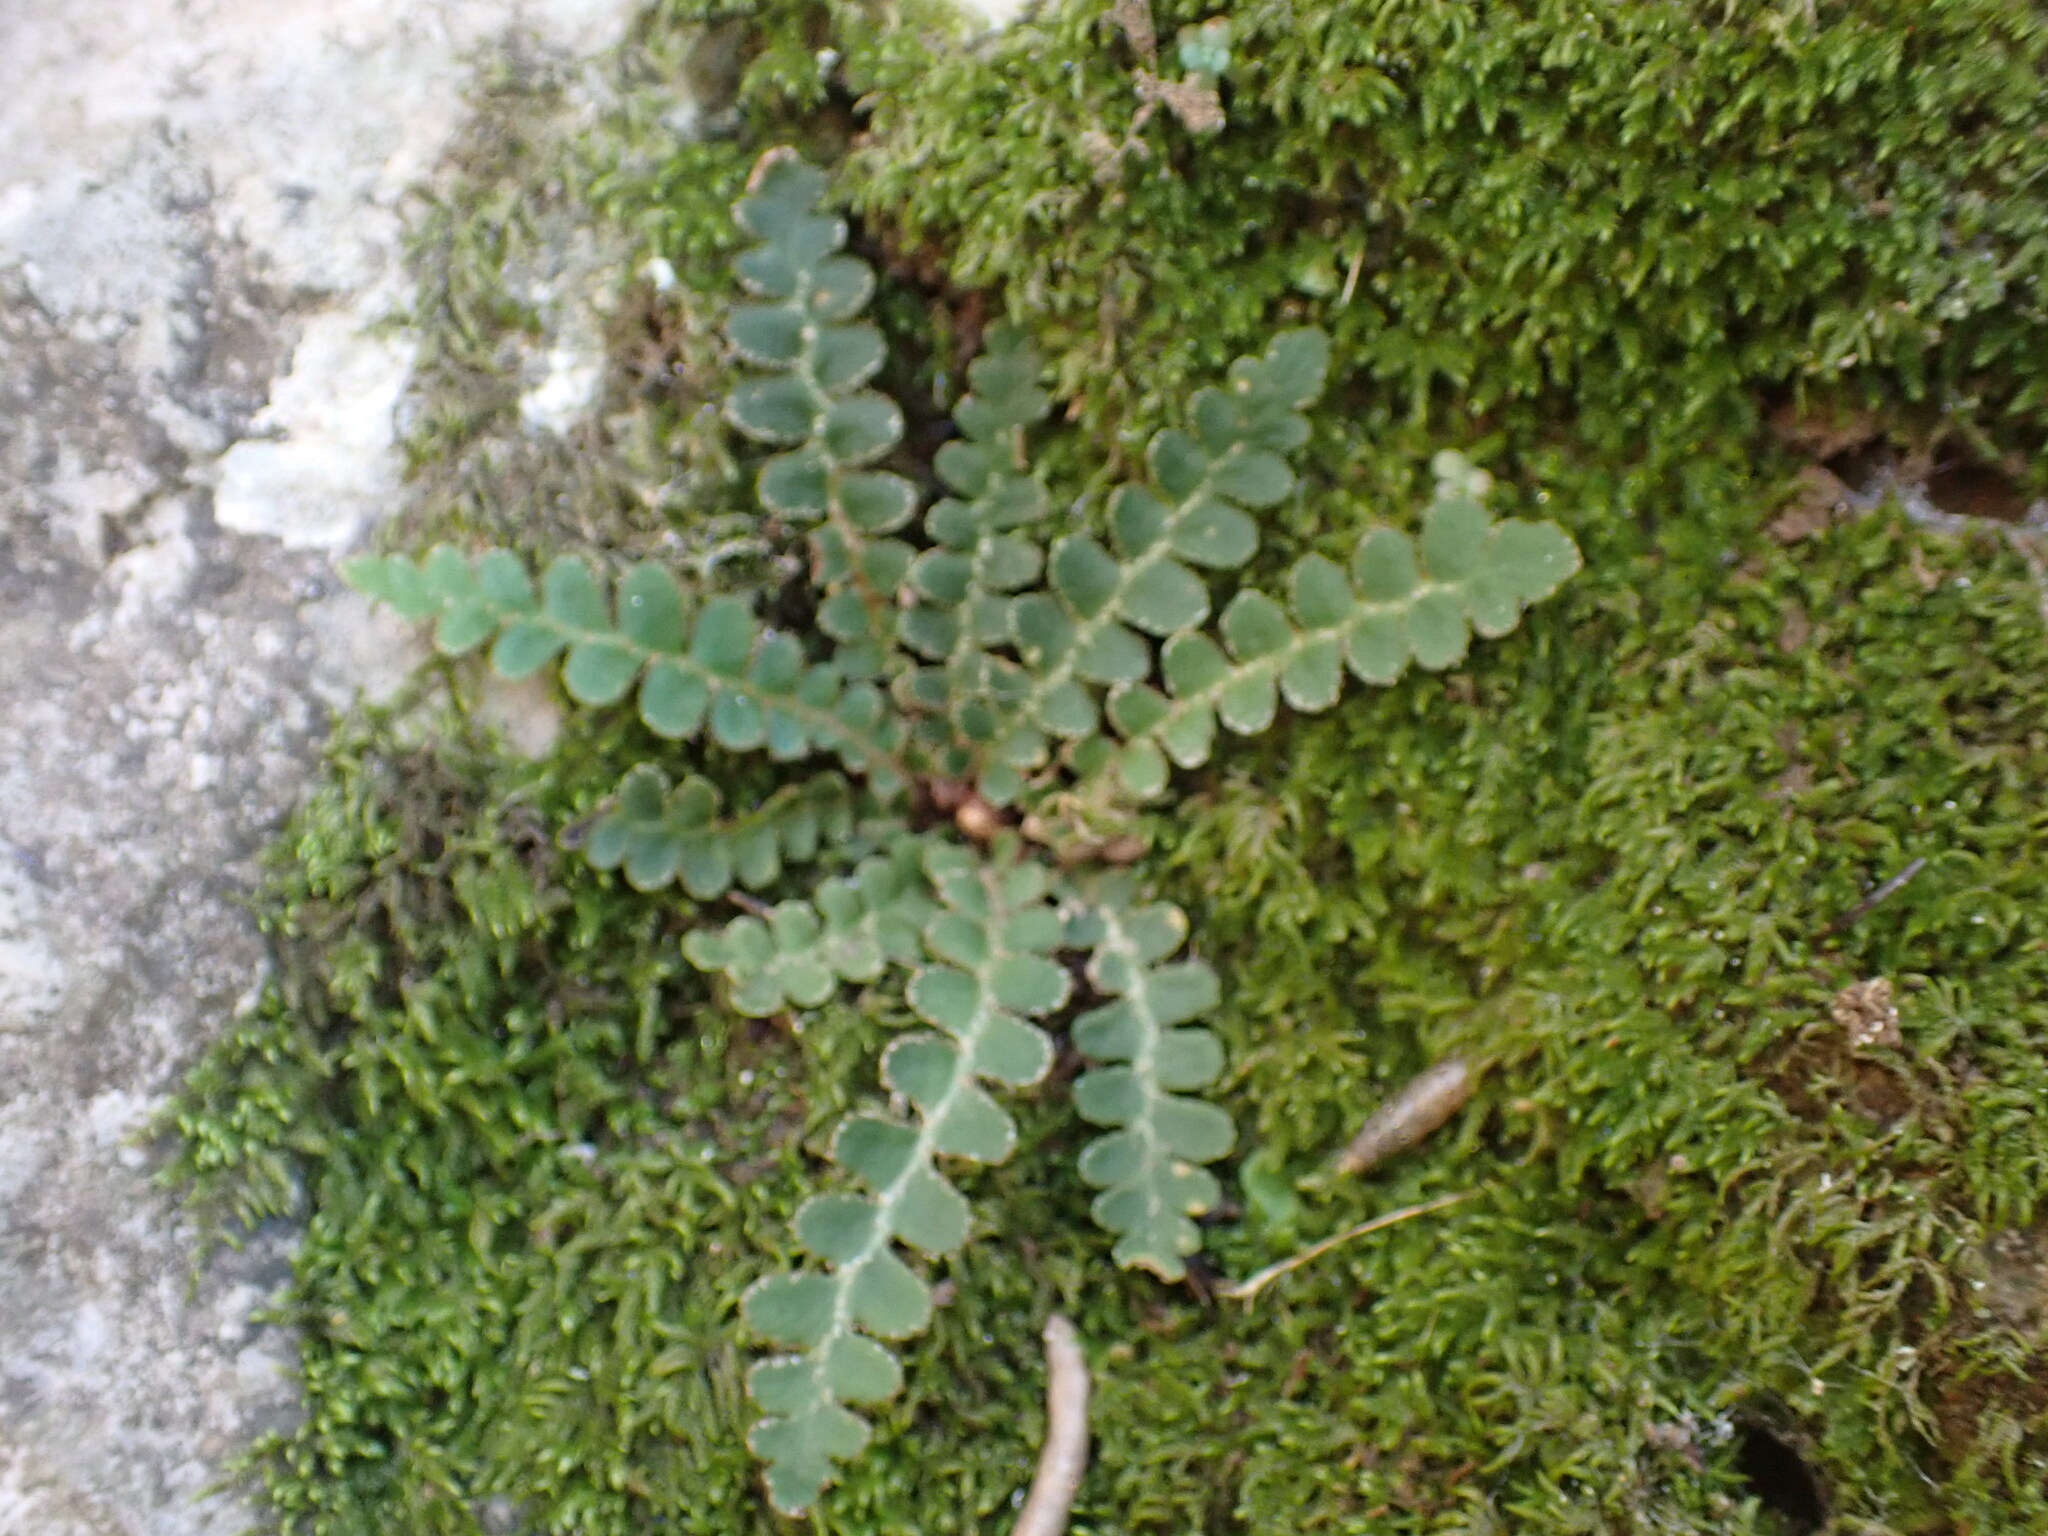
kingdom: Plantae
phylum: Tracheophyta
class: Polypodiopsida
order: Polypodiales
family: Aspleniaceae
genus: Asplenium
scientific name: Asplenium ceterach
